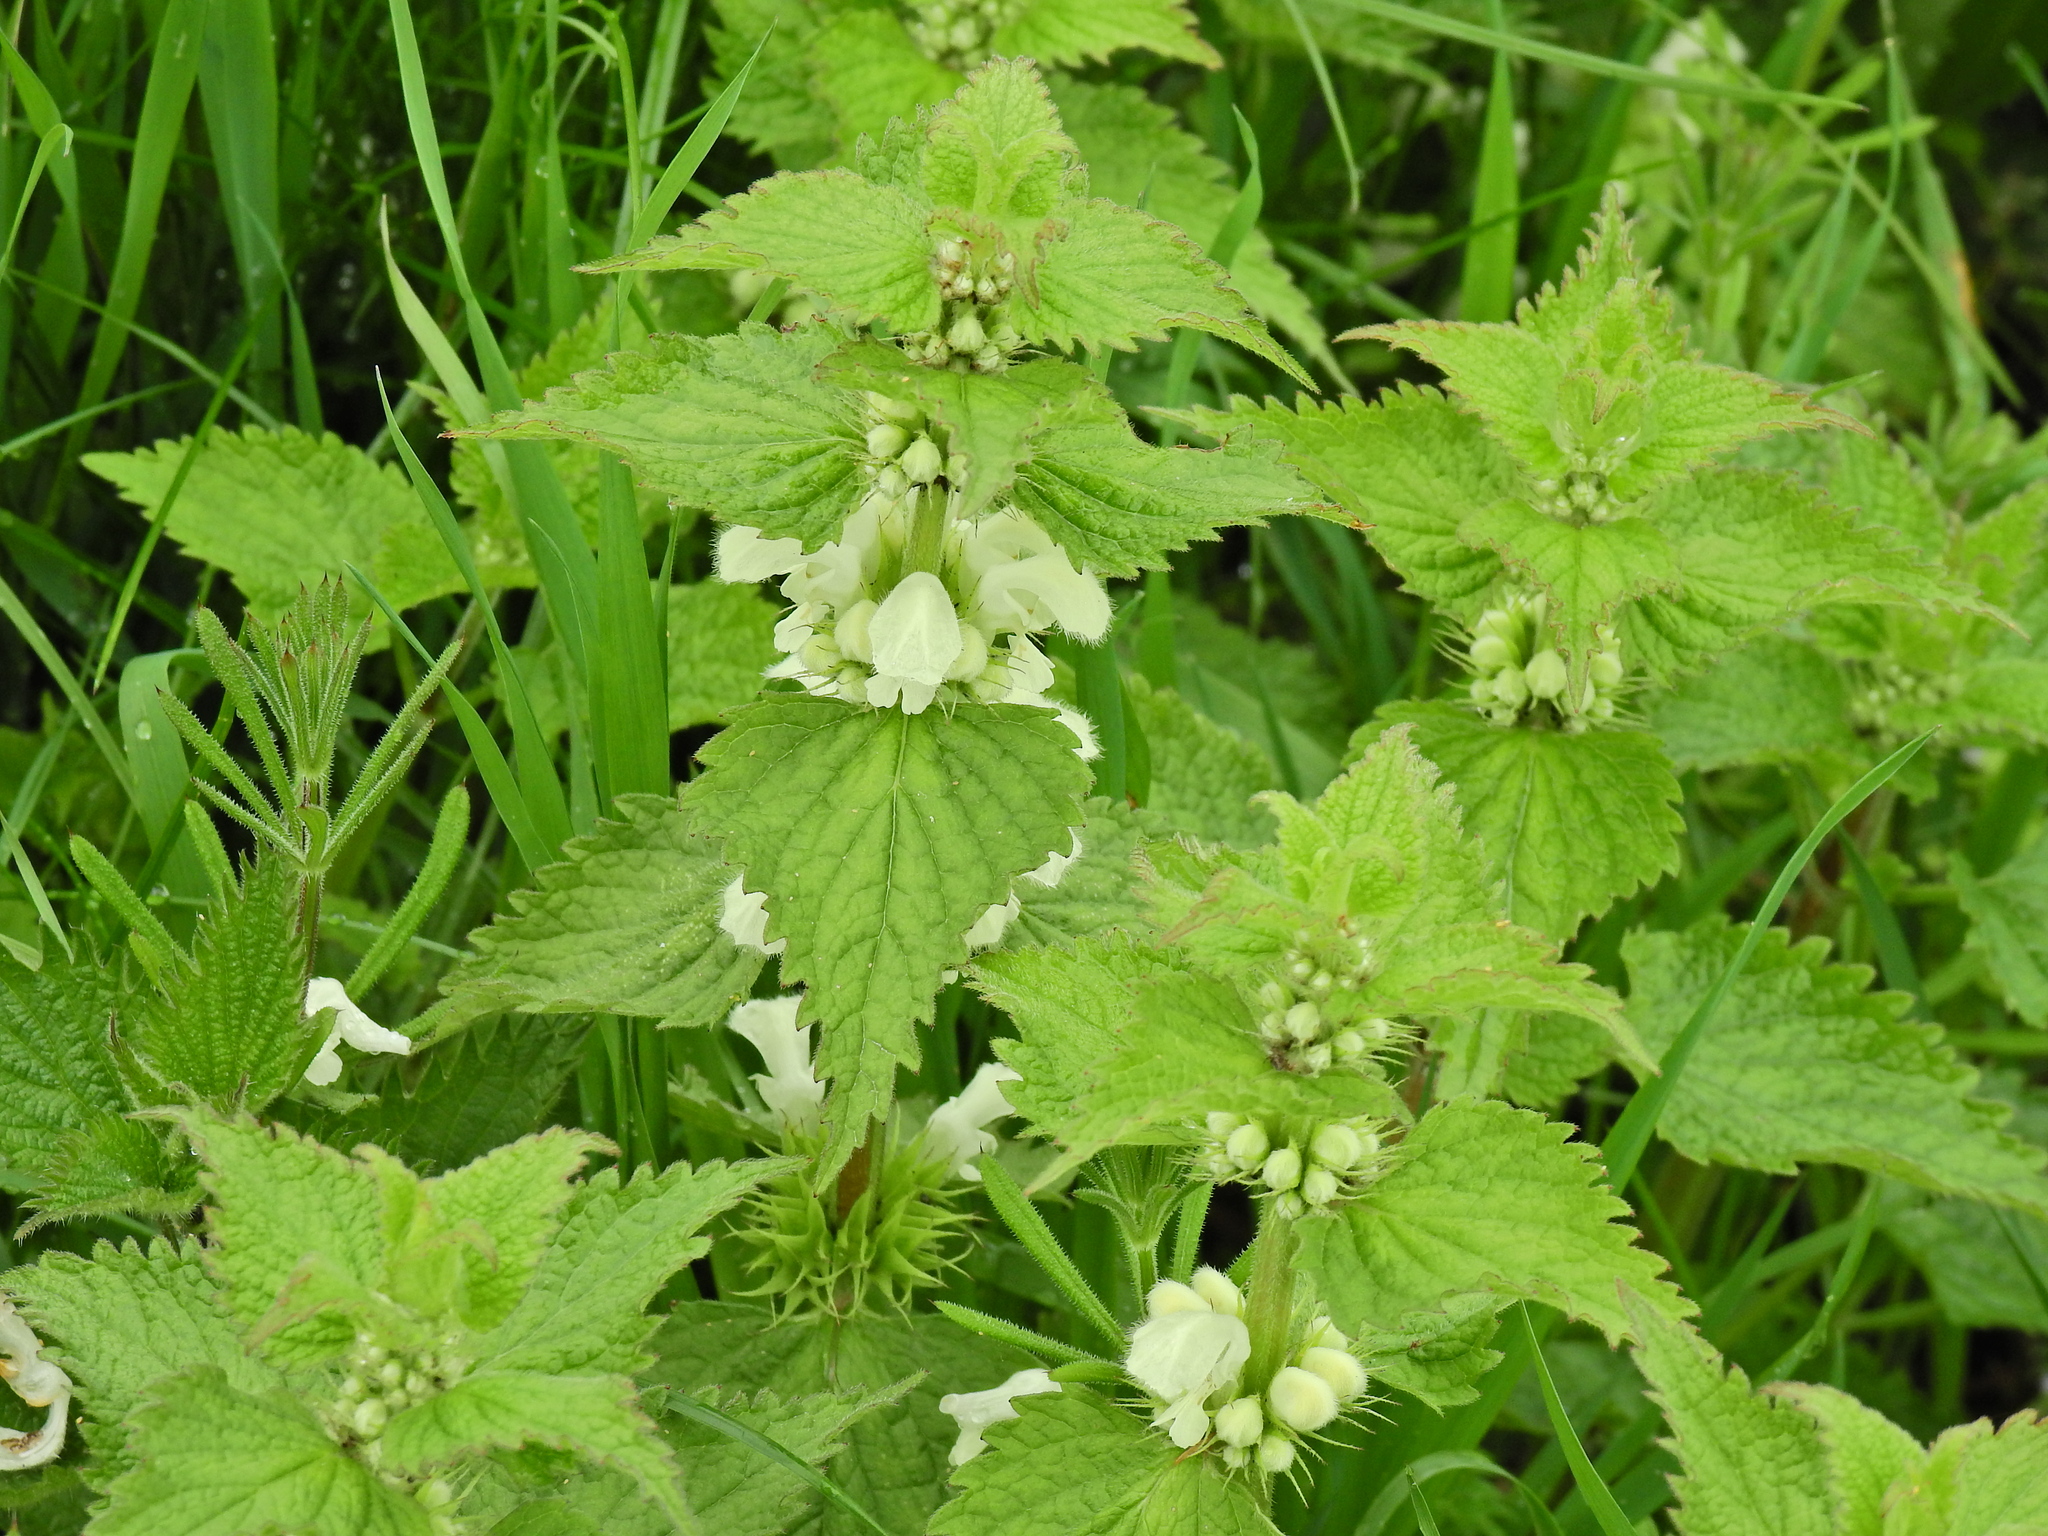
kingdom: Plantae
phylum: Tracheophyta
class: Magnoliopsida
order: Lamiales
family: Lamiaceae
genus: Lamium
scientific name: Lamium album
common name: White dead-nettle
